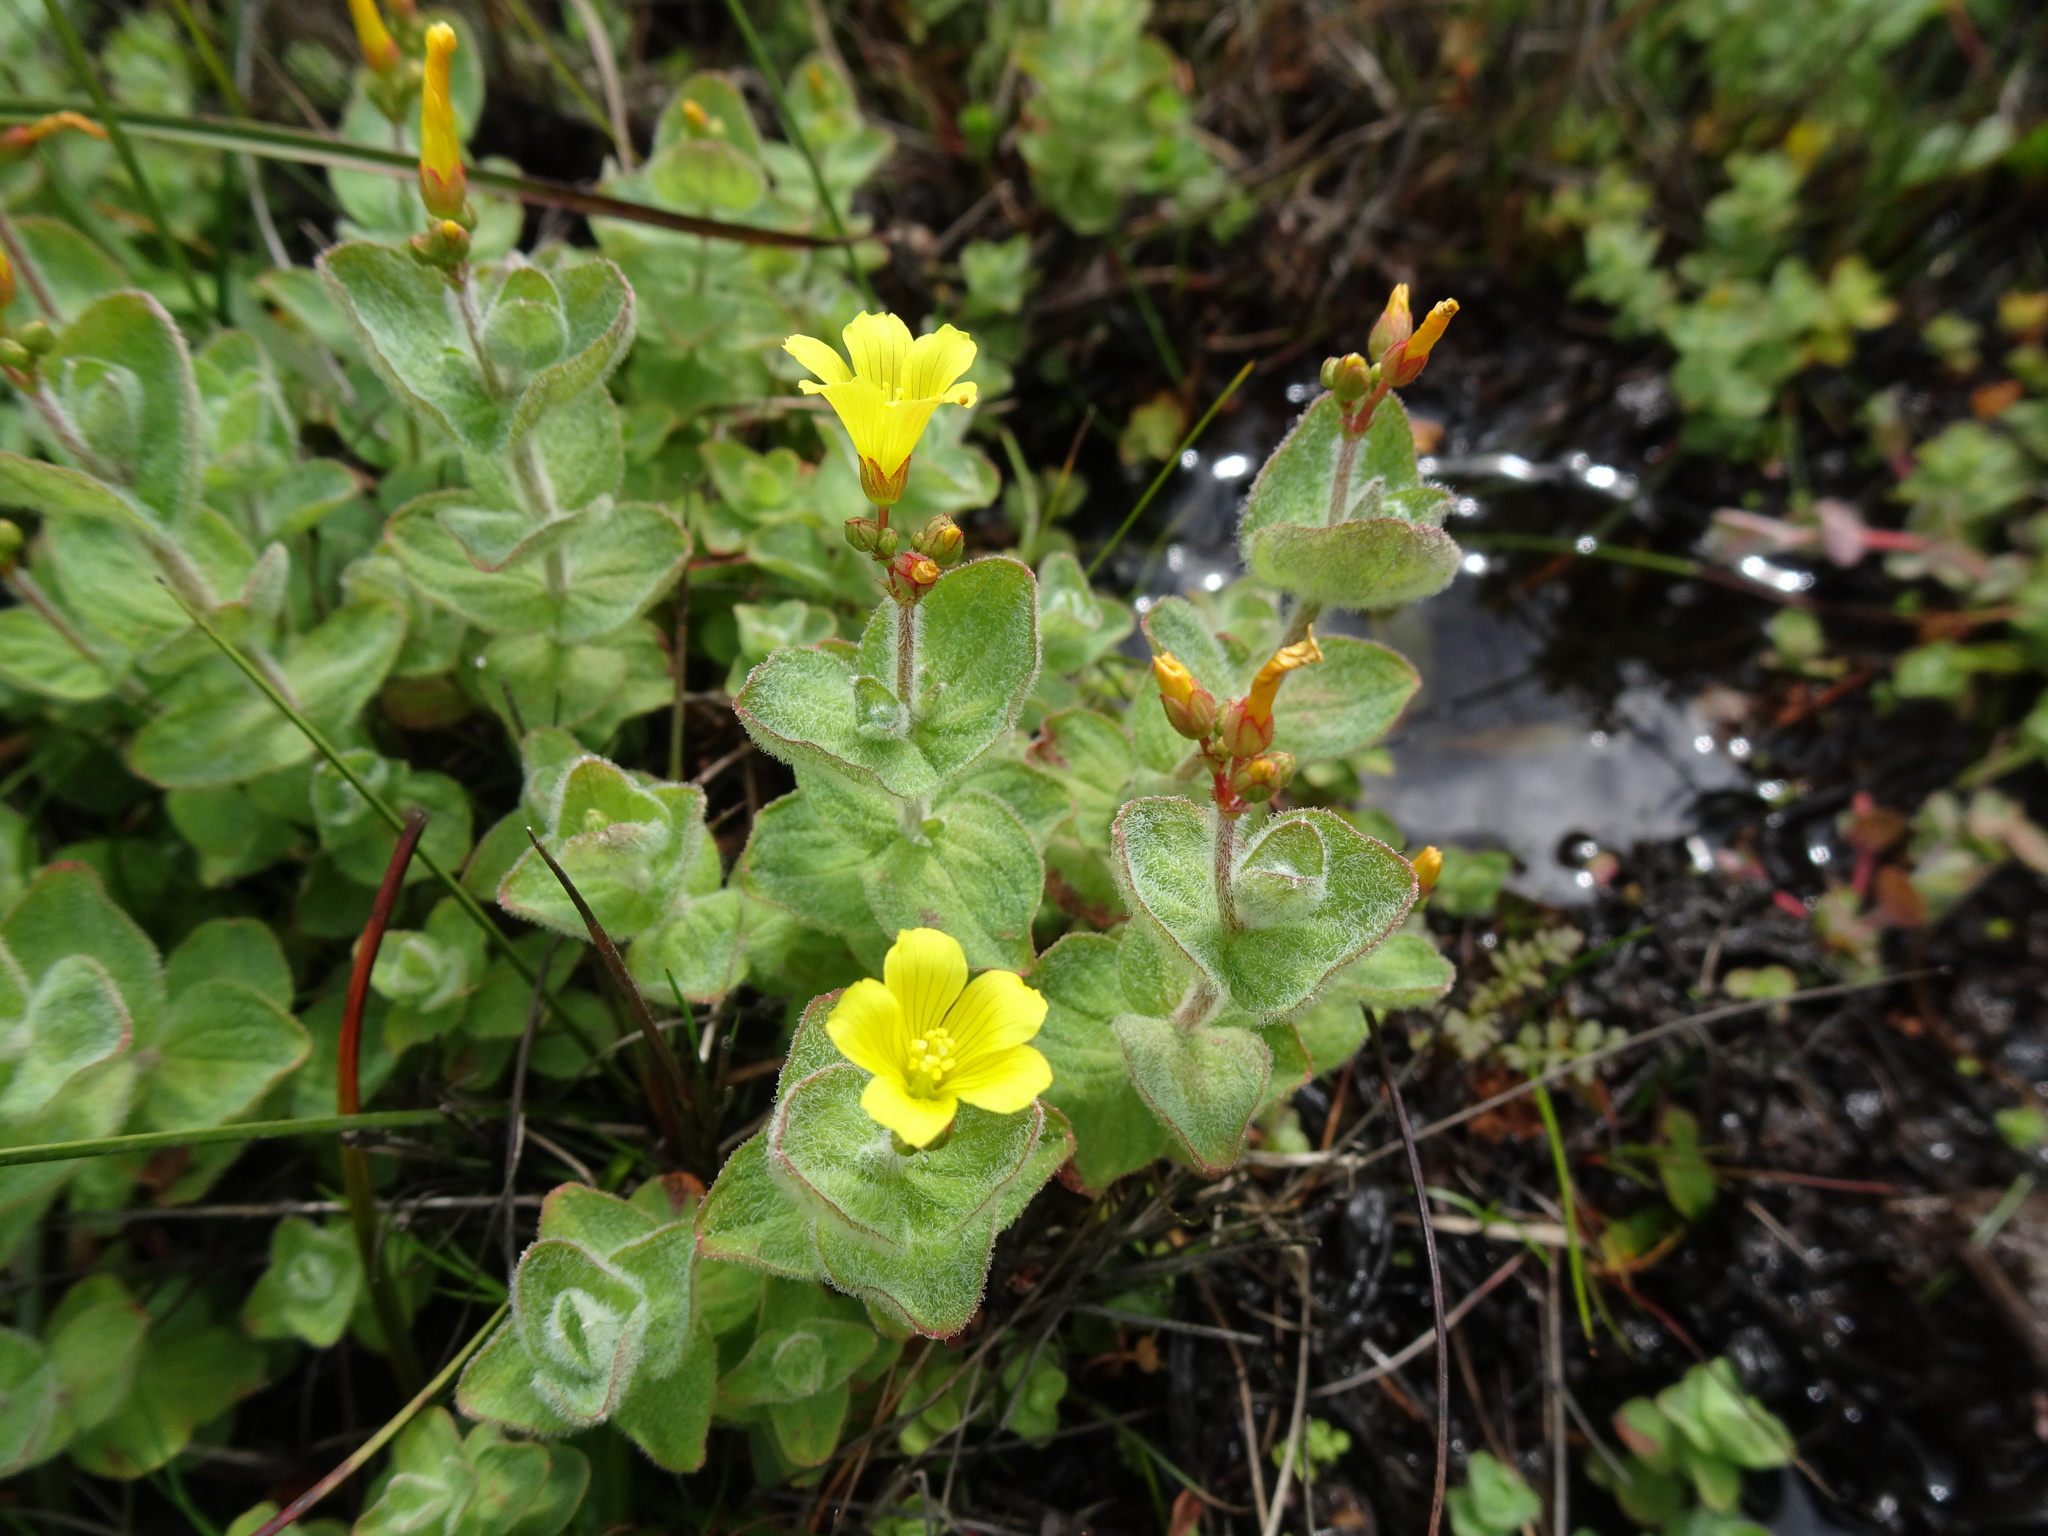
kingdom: Plantae
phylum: Tracheophyta
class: Magnoliopsida
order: Malpighiales
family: Hypericaceae
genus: Hypericum
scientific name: Hypericum elodes
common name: Marsh st. john's-wort
